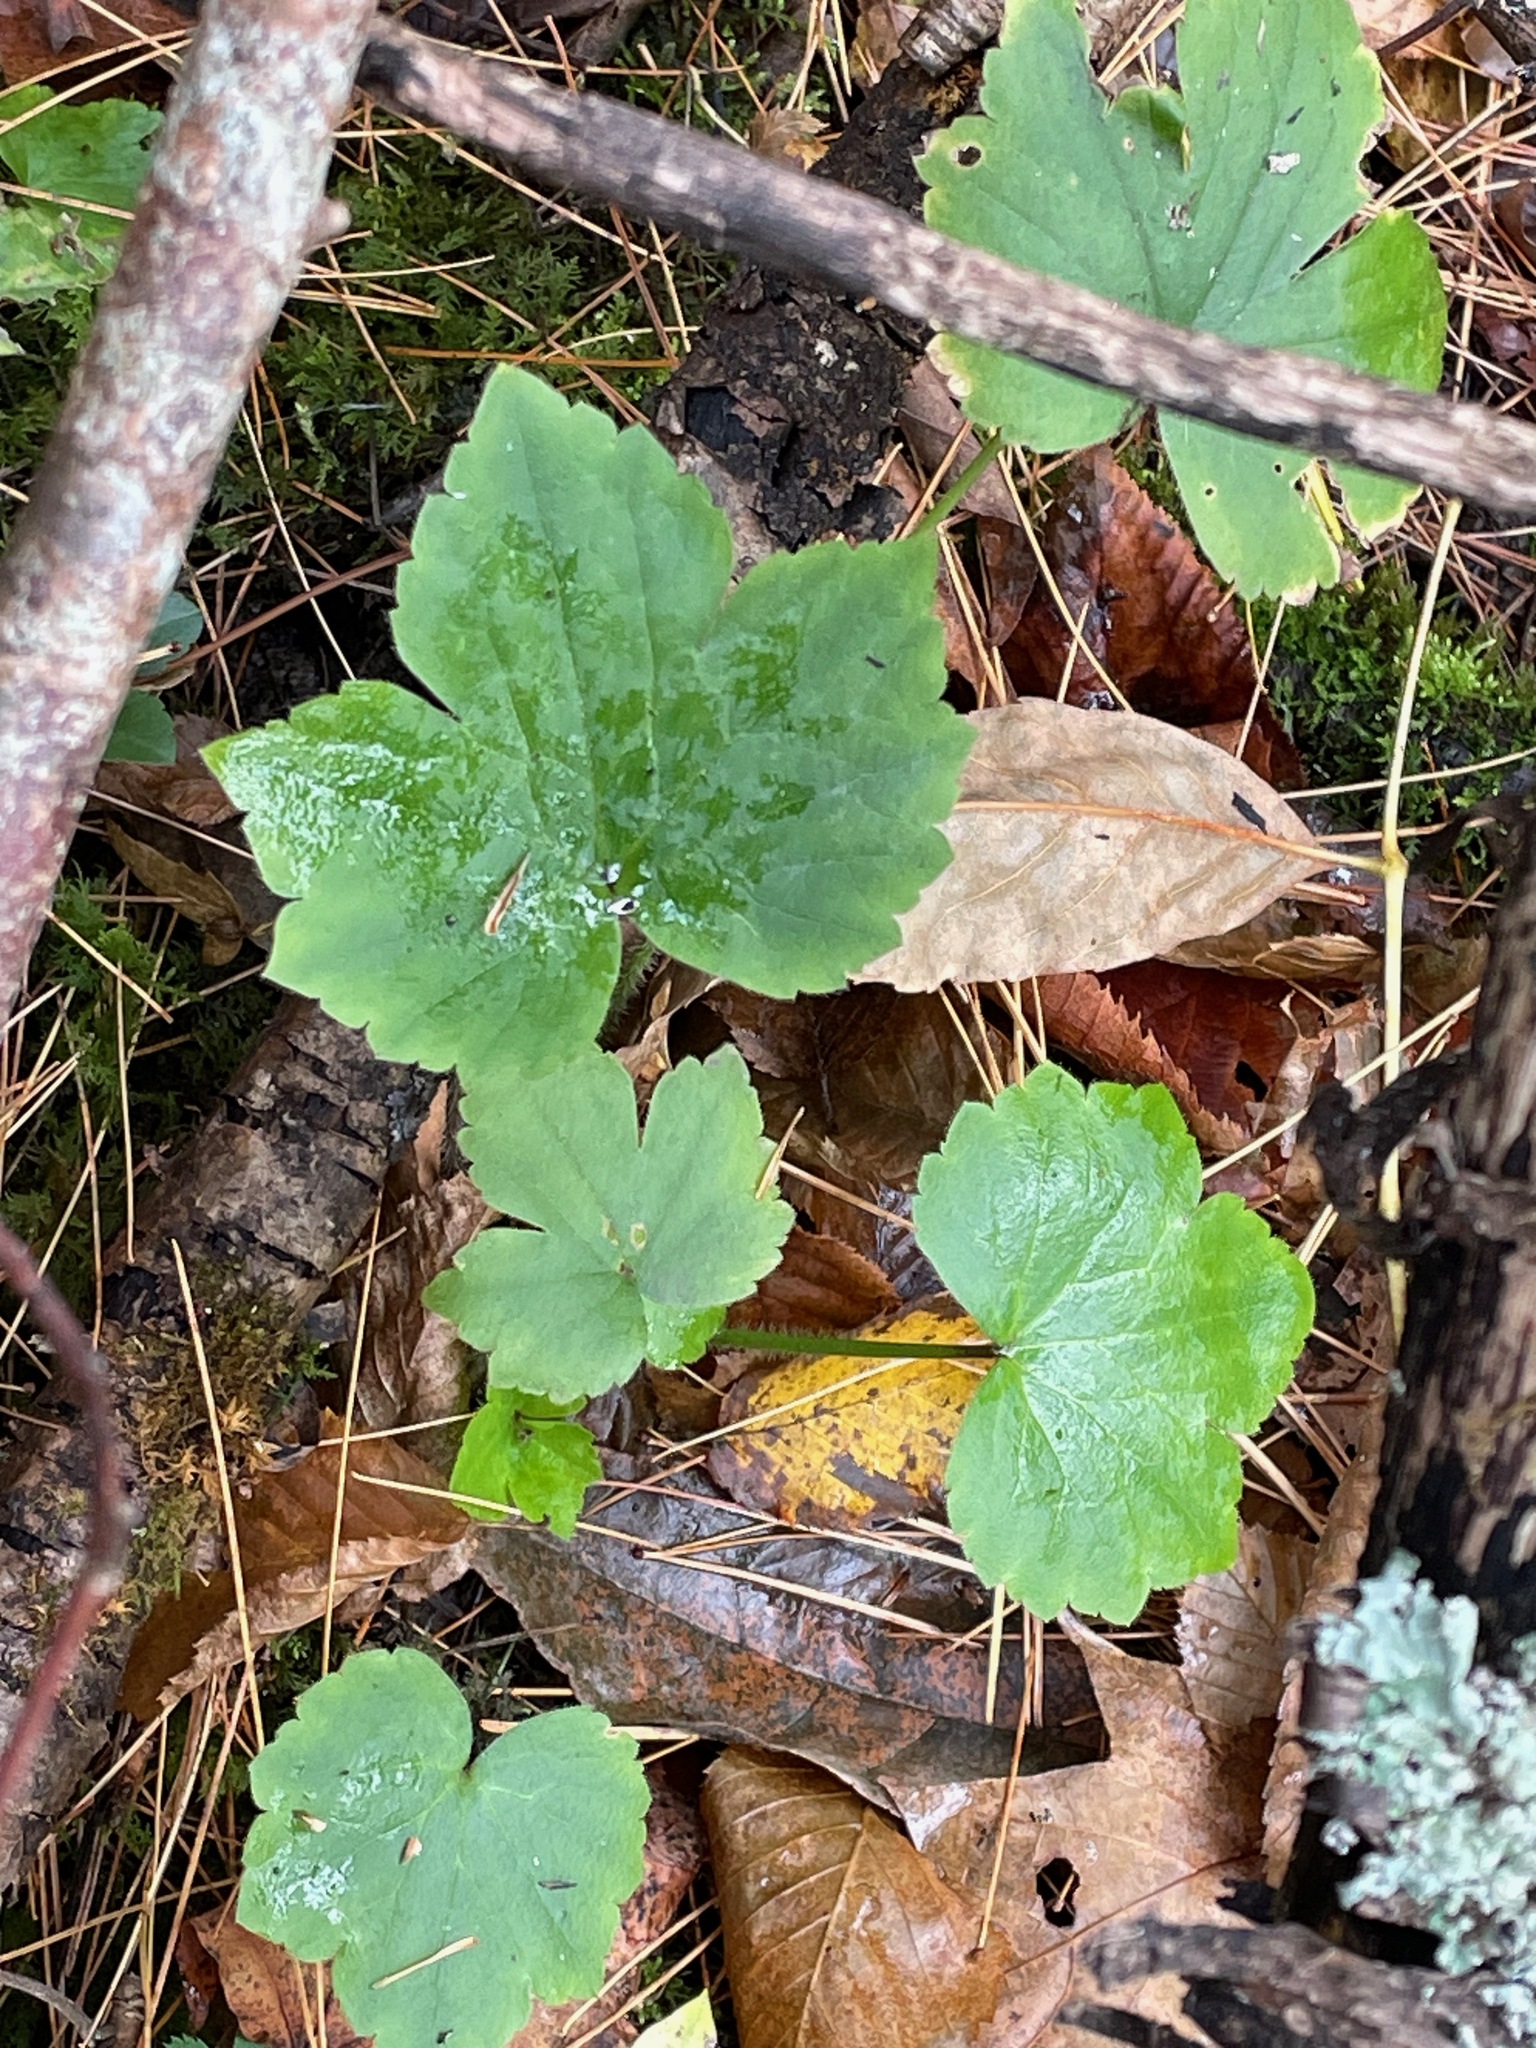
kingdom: Plantae
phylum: Tracheophyta
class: Magnoliopsida
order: Ranunculales
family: Ranunculaceae
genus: Ranunculus
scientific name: Ranunculus recurvatus
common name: Blisterwort
